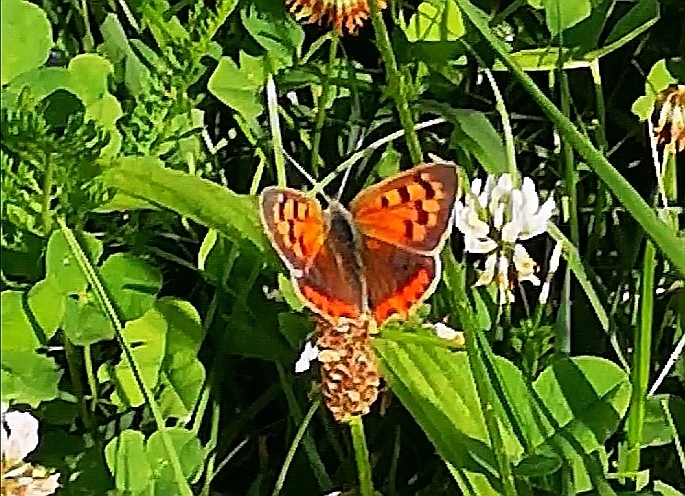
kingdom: Animalia
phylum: Arthropoda
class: Insecta
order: Lepidoptera
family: Lycaenidae
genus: Lycaena
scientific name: Lycaena phlaeas
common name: Small copper
